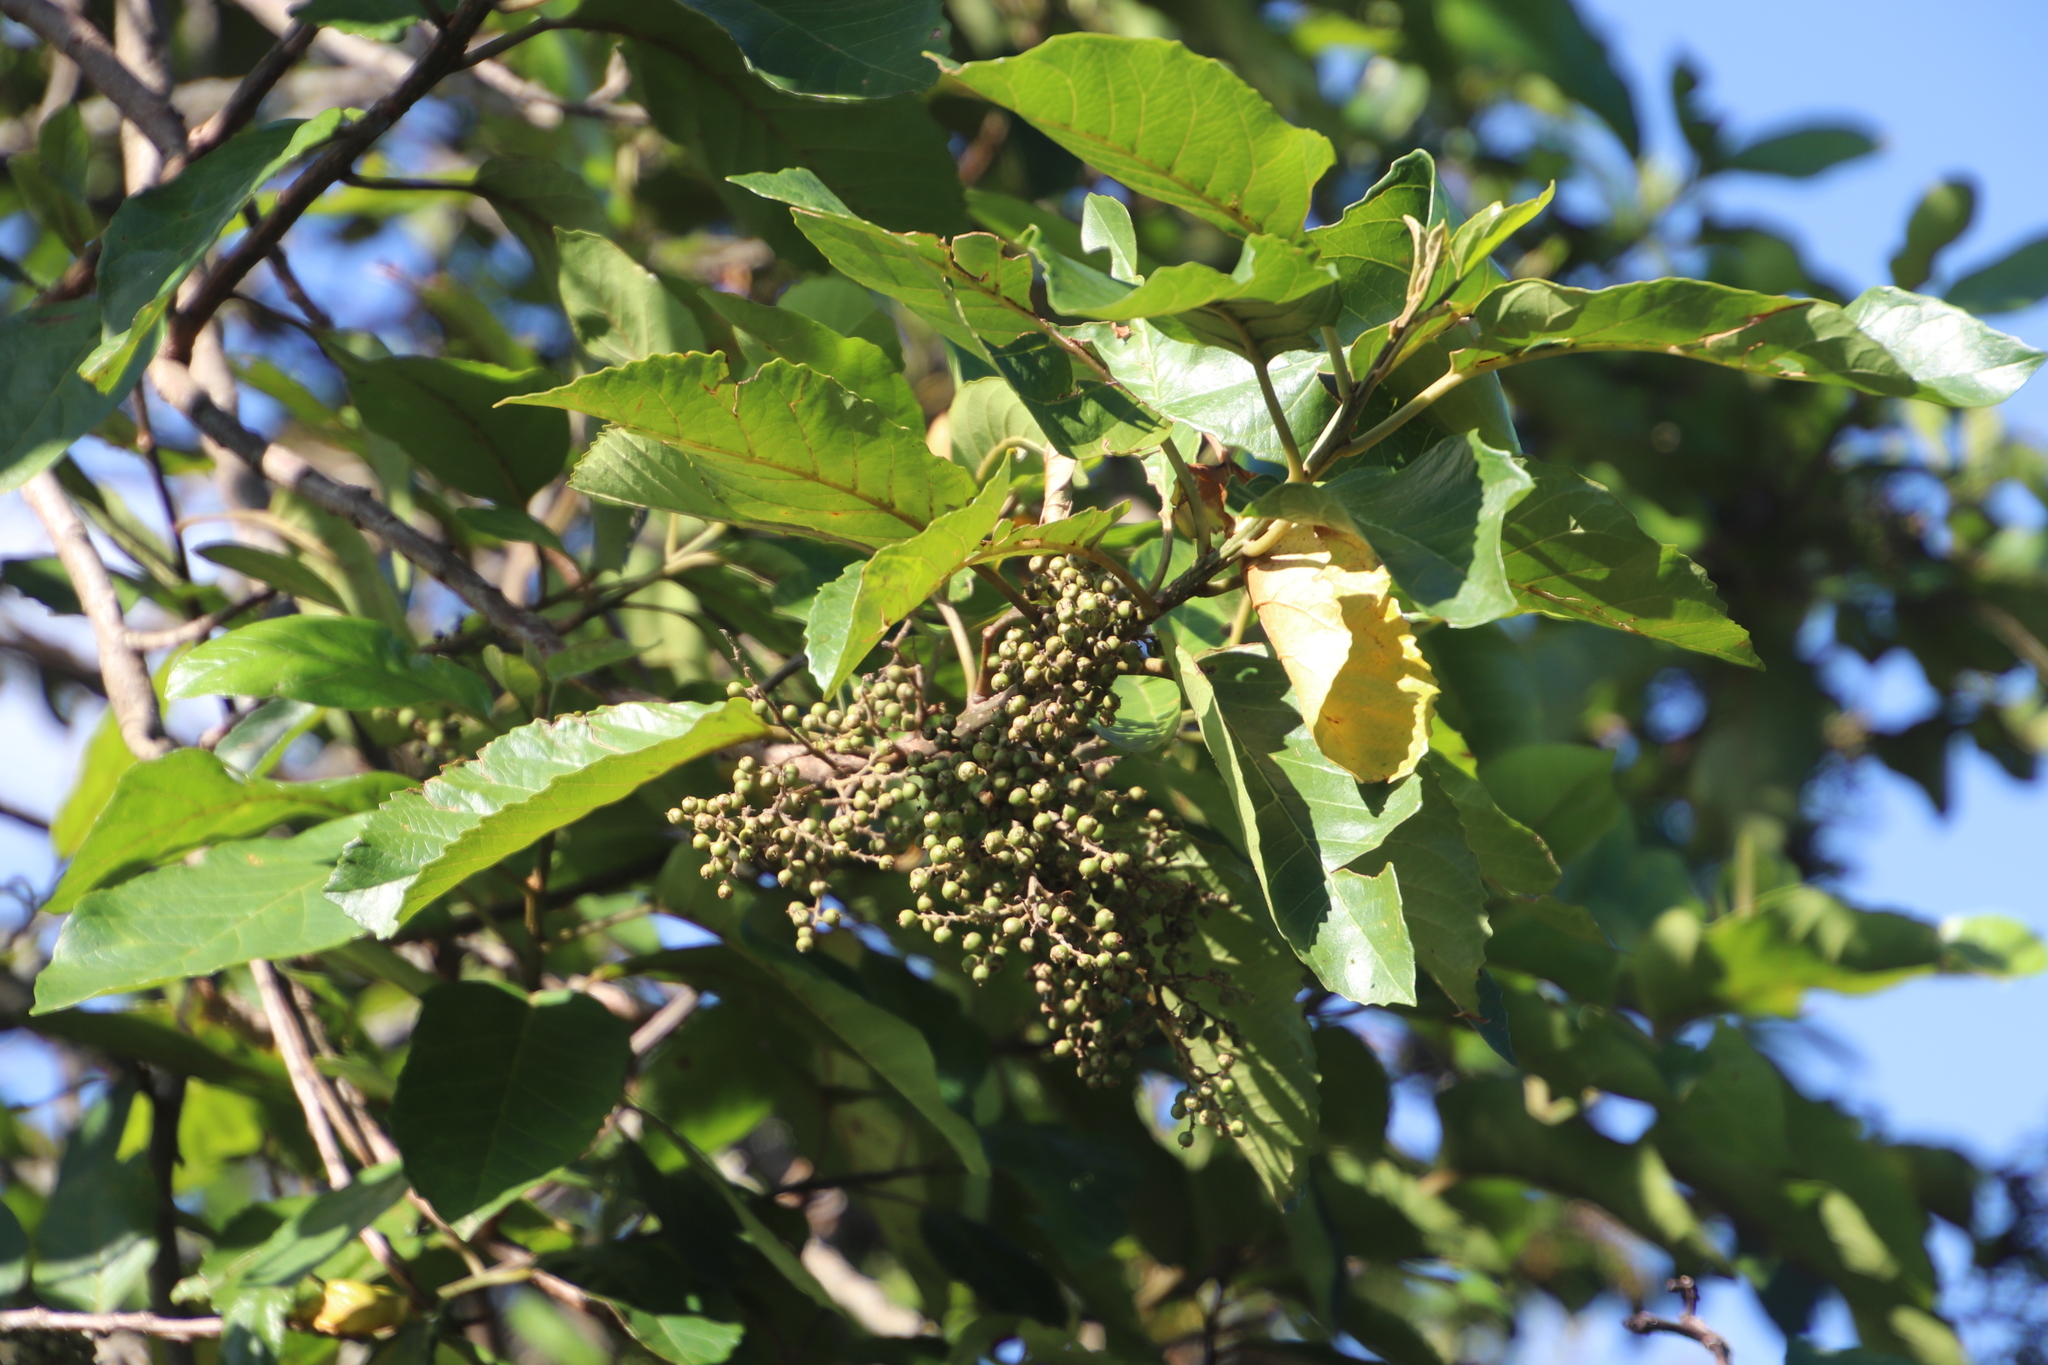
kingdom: Plantae
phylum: Tracheophyta
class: Magnoliopsida
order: Ericales
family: Primulaceae
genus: Maesa
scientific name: Maesa lanceolata
